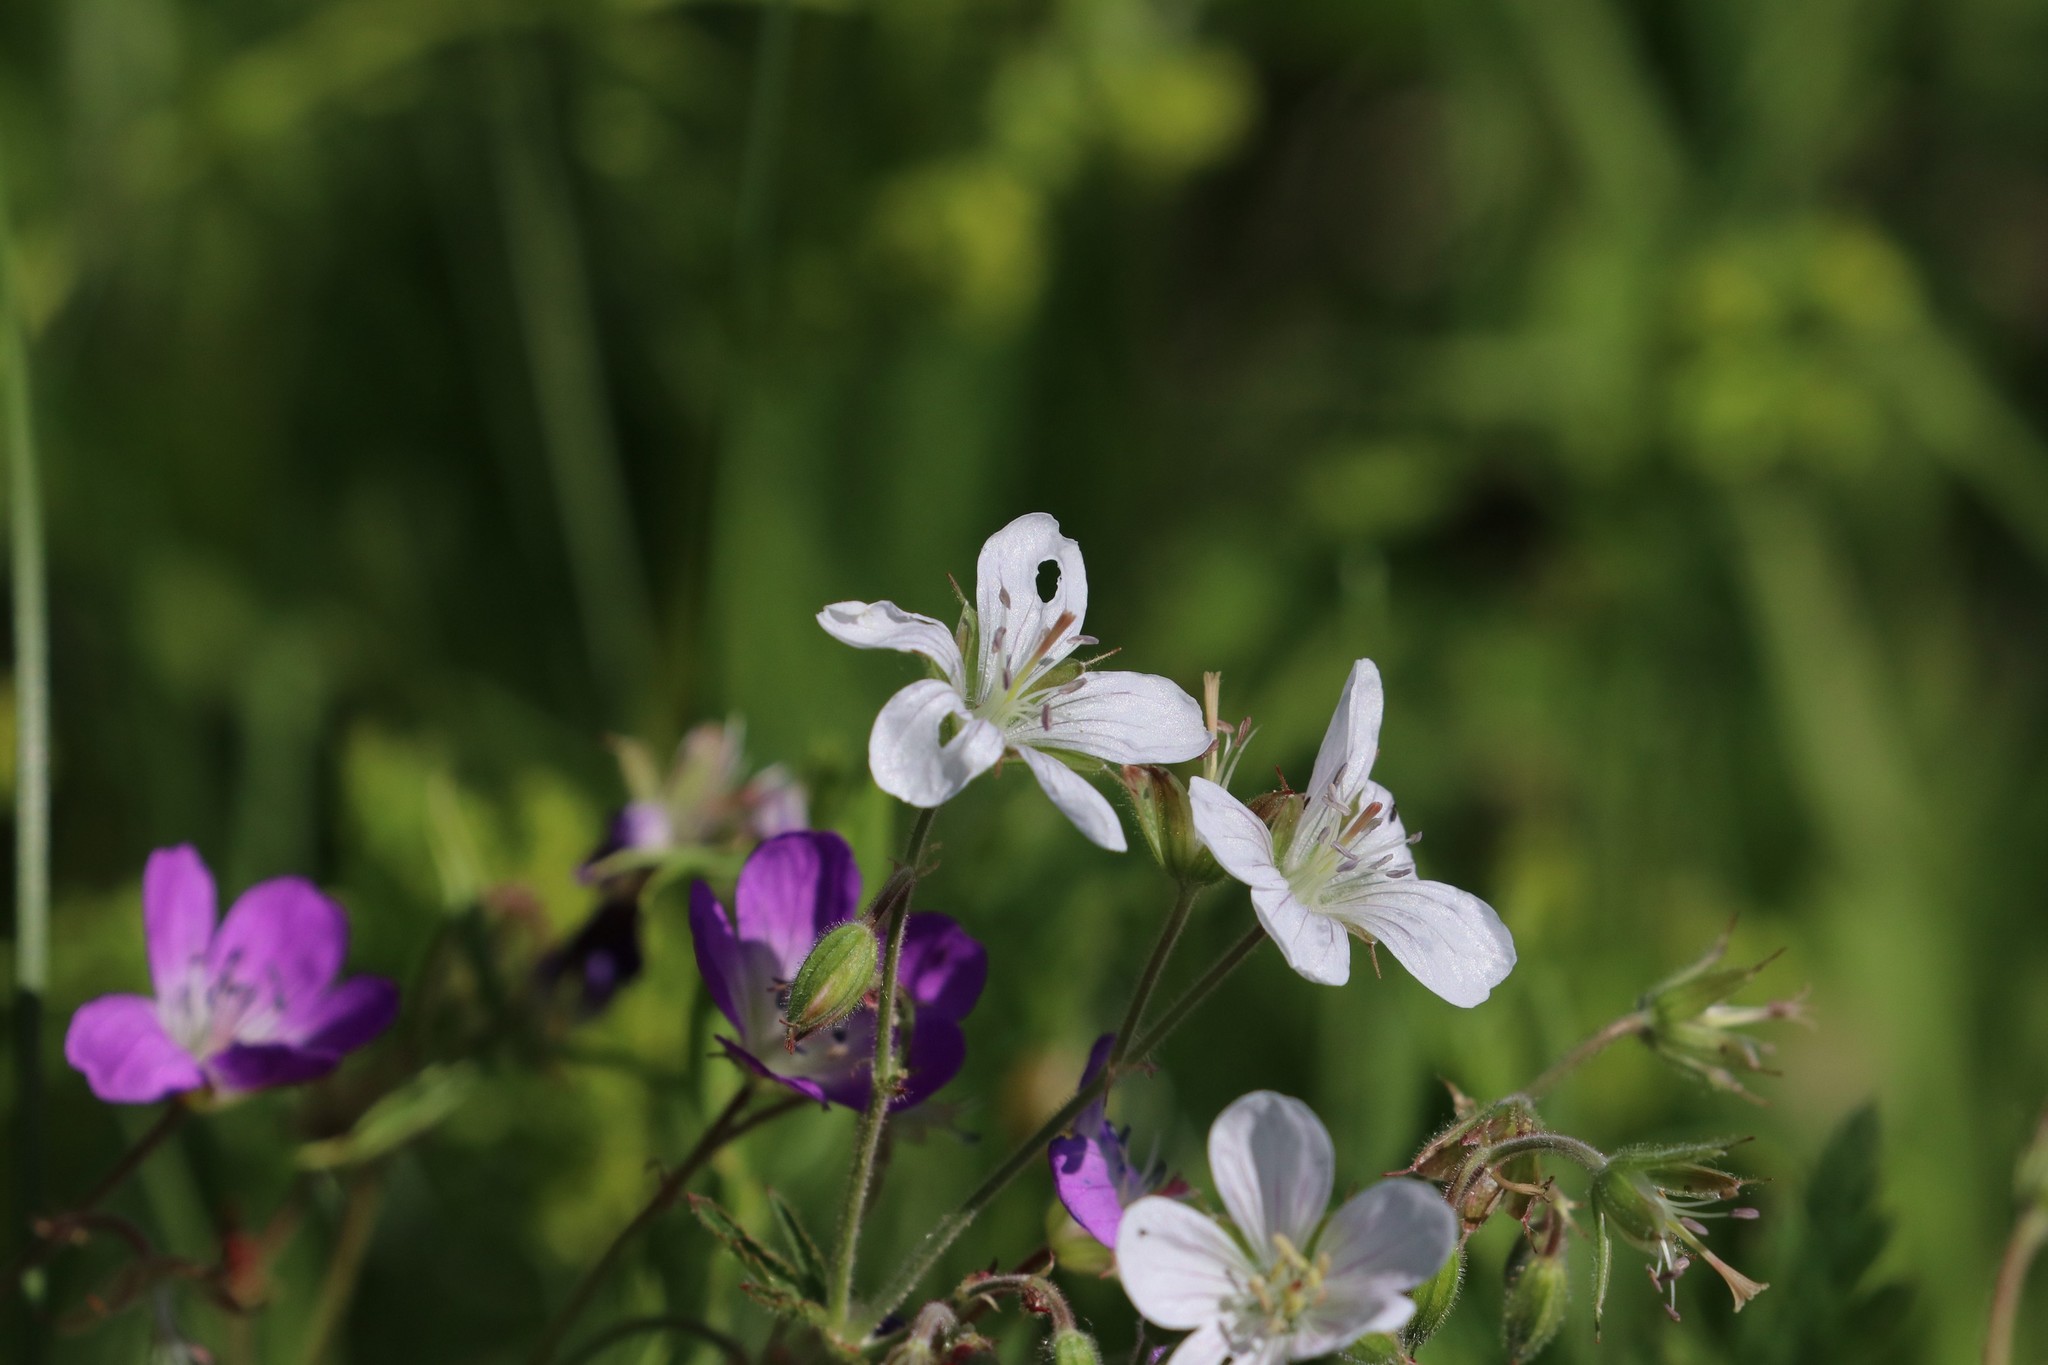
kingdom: Plantae
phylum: Tracheophyta
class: Magnoliopsida
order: Geraniales
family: Geraniaceae
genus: Geranium
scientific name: Geranium sylvaticum
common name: Wood crane's-bill
